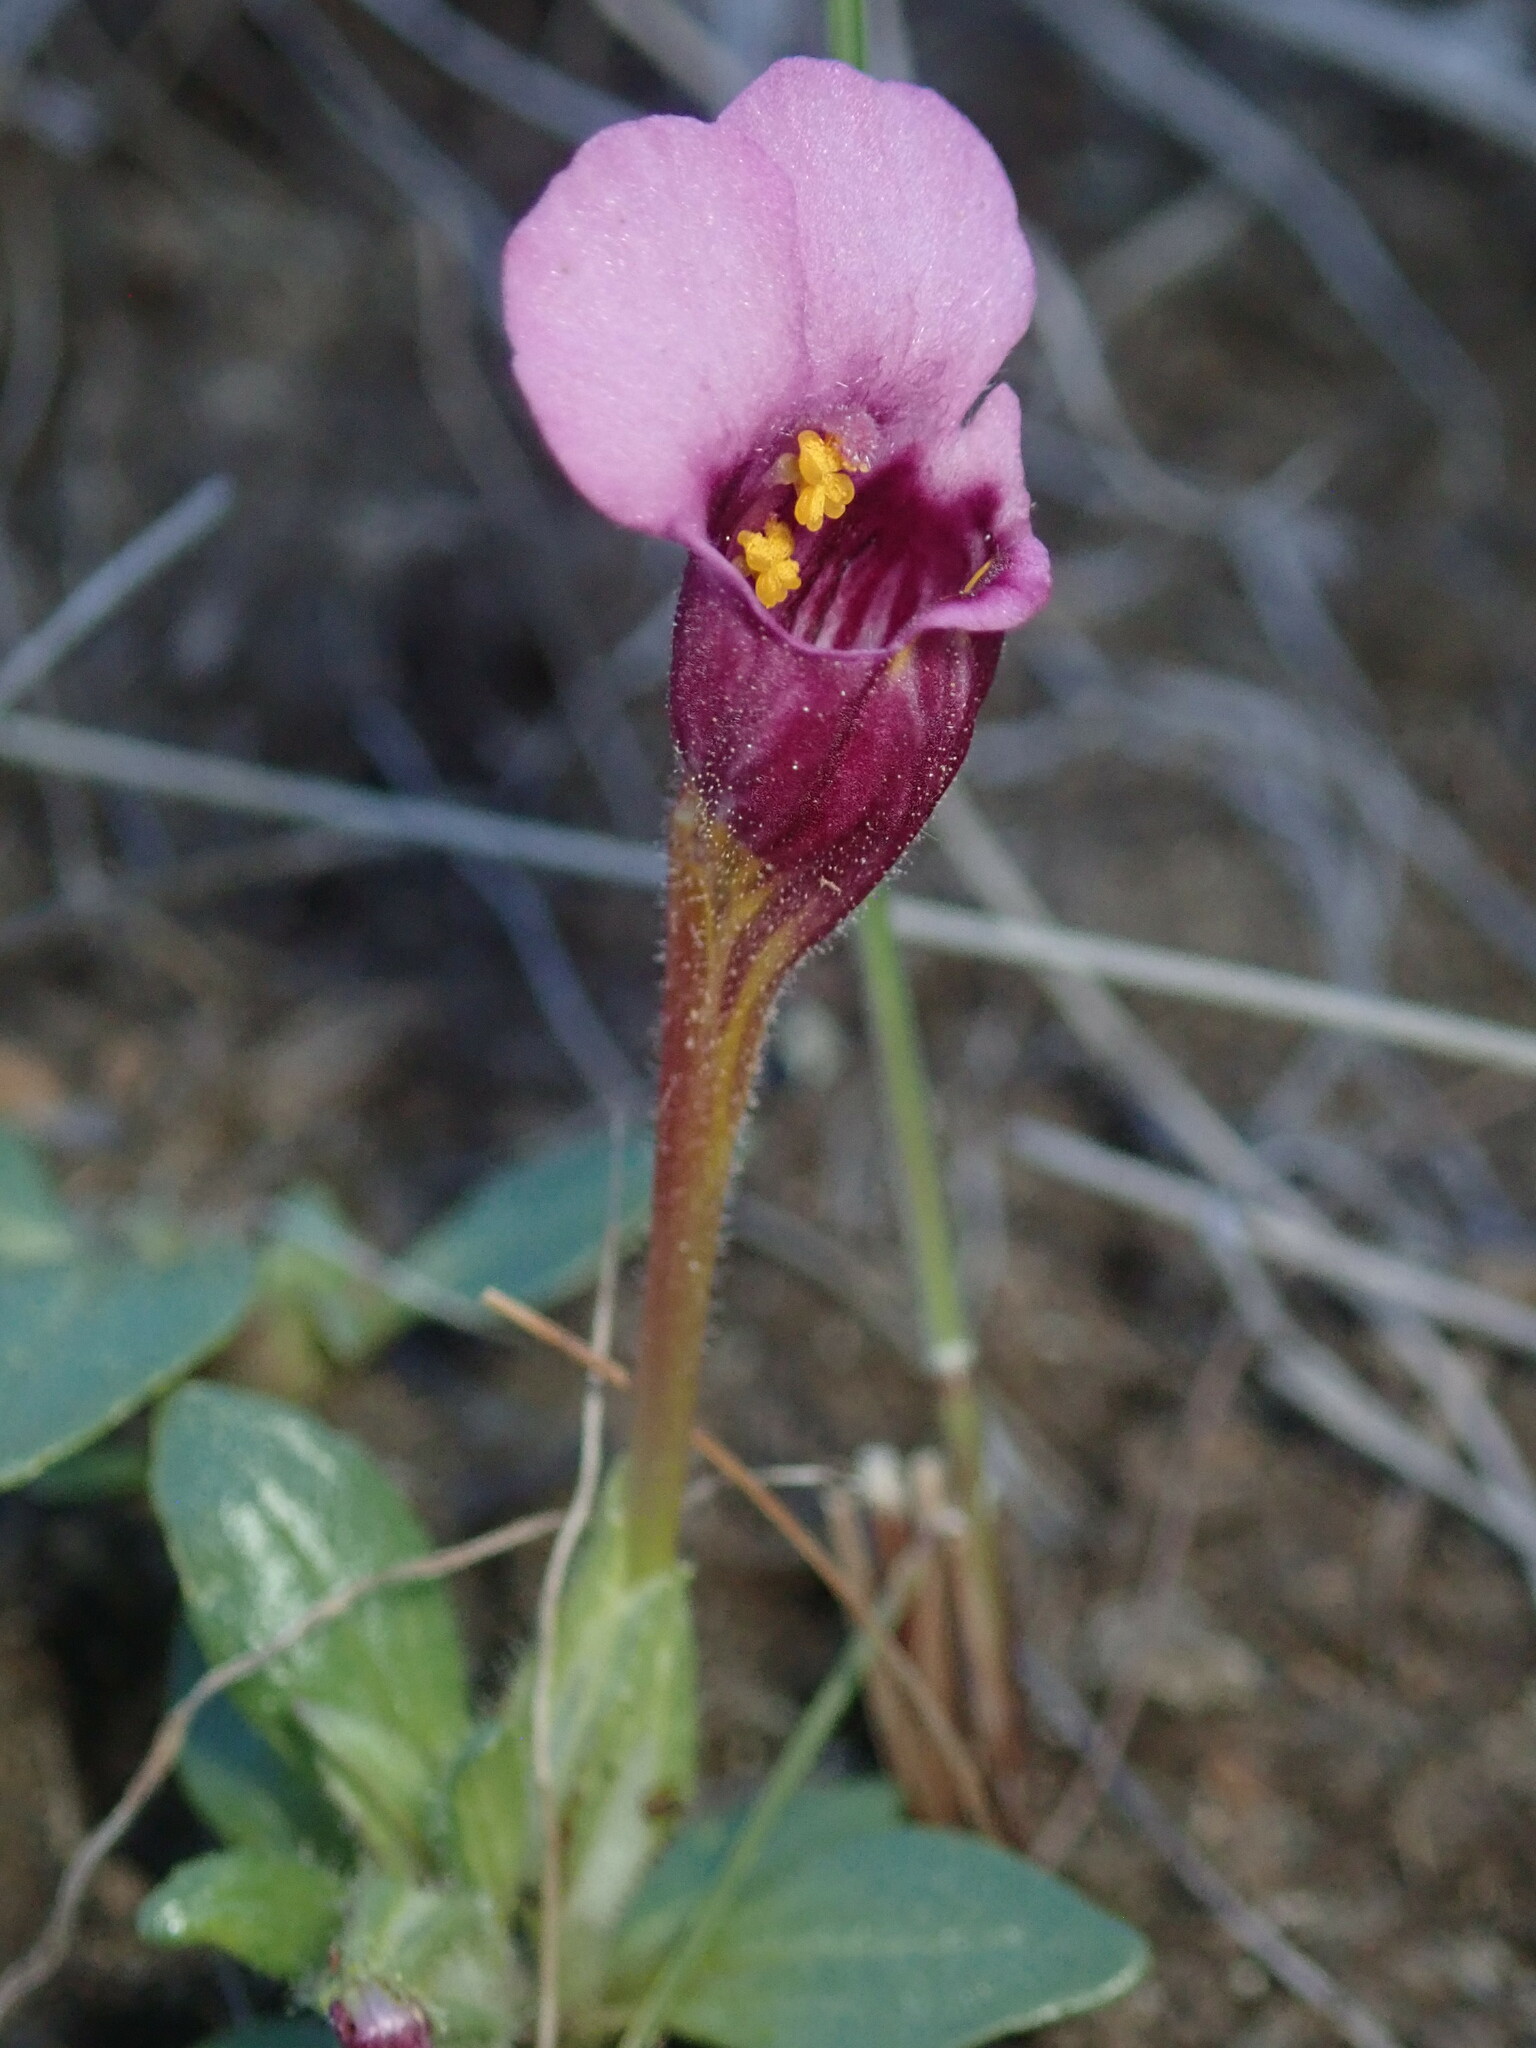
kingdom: Plantae
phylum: Tracheophyta
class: Magnoliopsida
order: Lamiales
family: Phrymaceae
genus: Diplacus
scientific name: Diplacus douglasii
